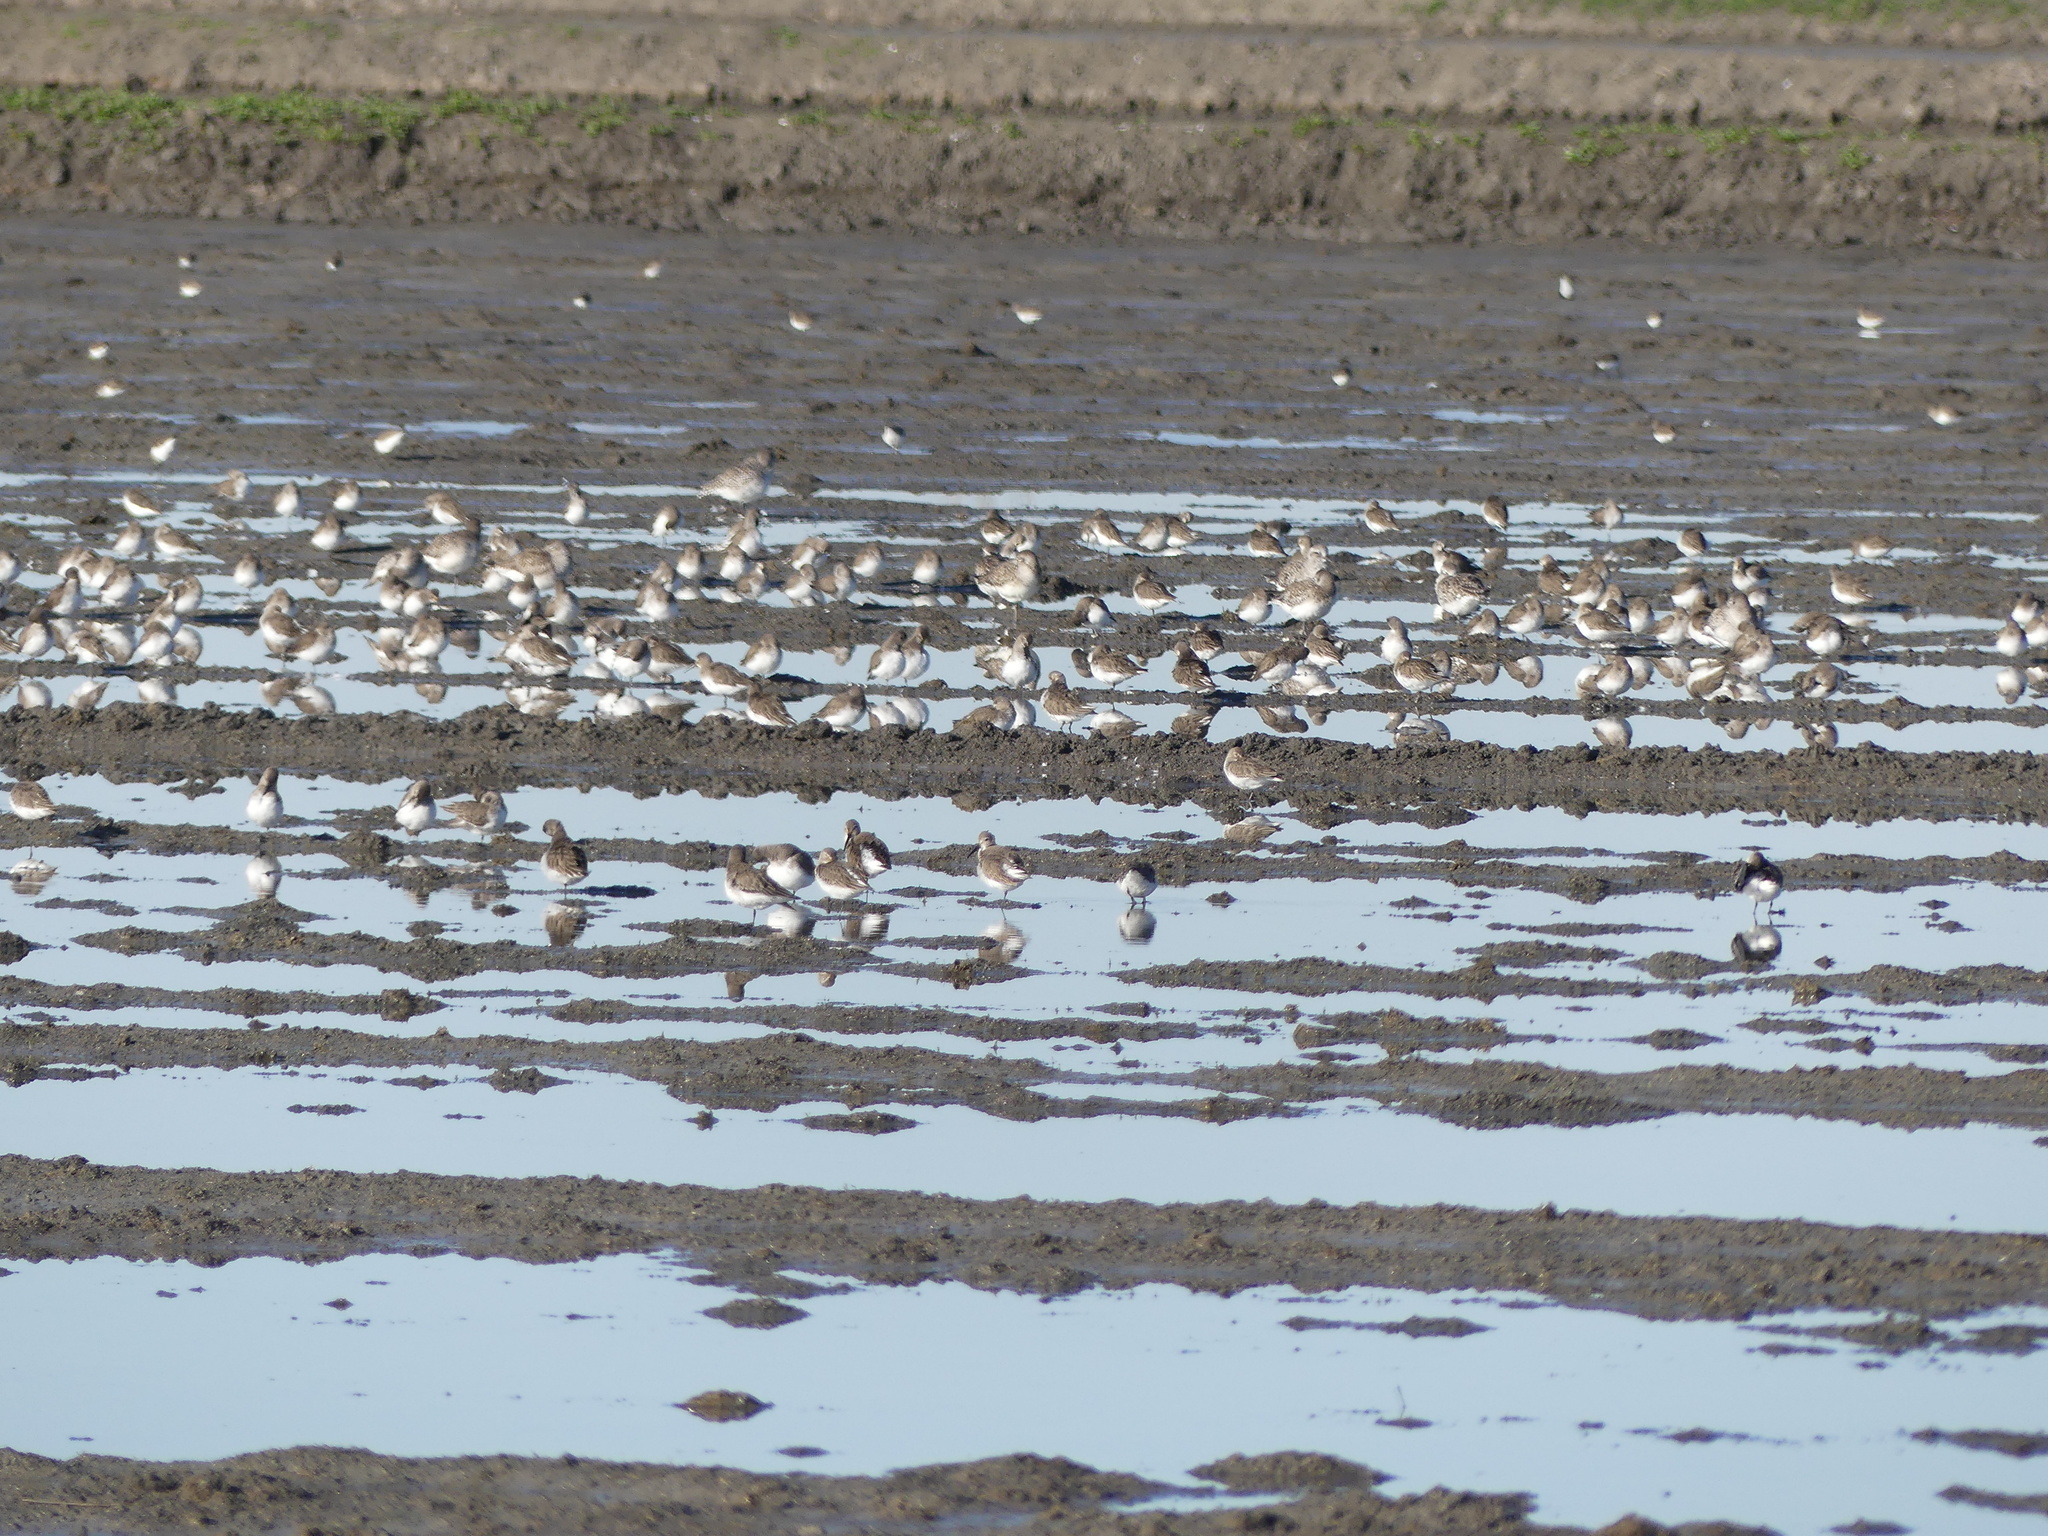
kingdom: Animalia
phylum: Chordata
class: Aves
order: Charadriiformes
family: Scolopacidae
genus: Calidris
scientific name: Calidris alpina
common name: Dunlin
